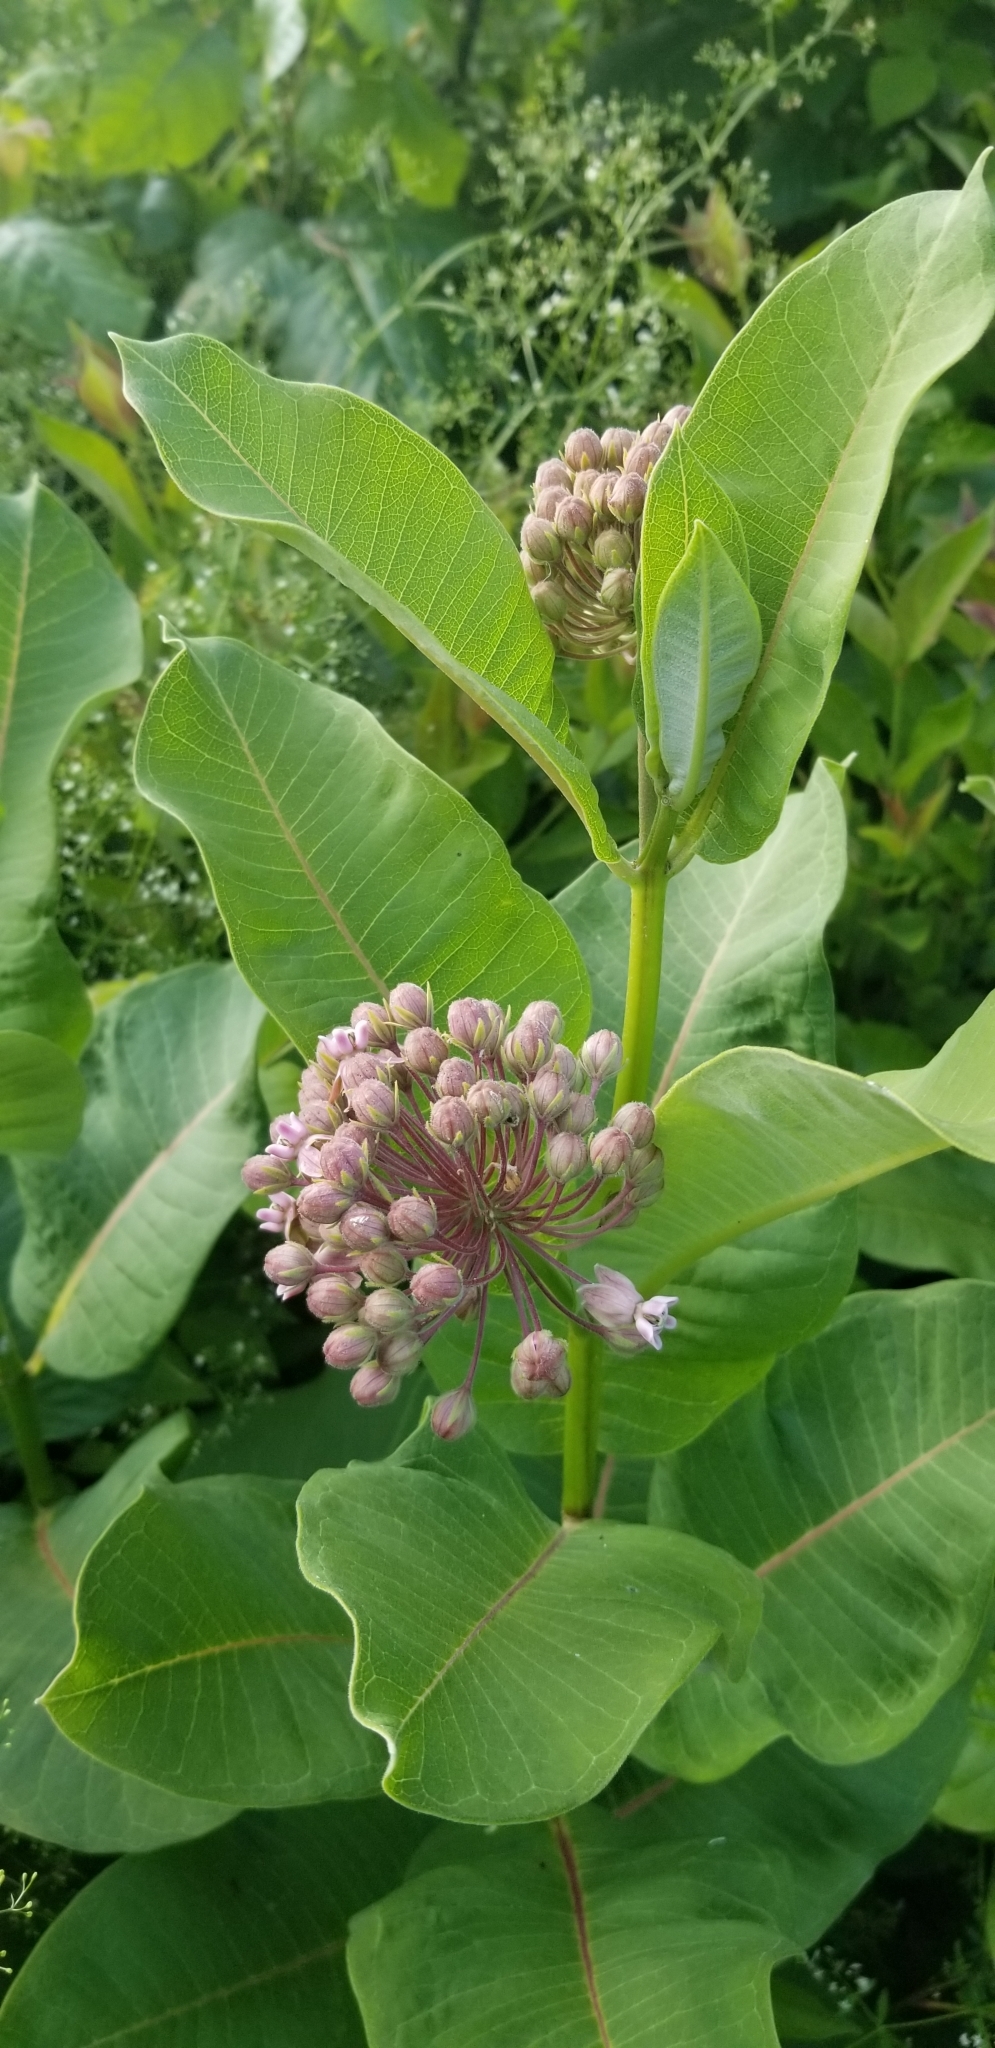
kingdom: Plantae
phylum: Tracheophyta
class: Magnoliopsida
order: Gentianales
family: Apocynaceae
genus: Asclepias
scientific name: Asclepias syriaca
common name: Common milkweed
